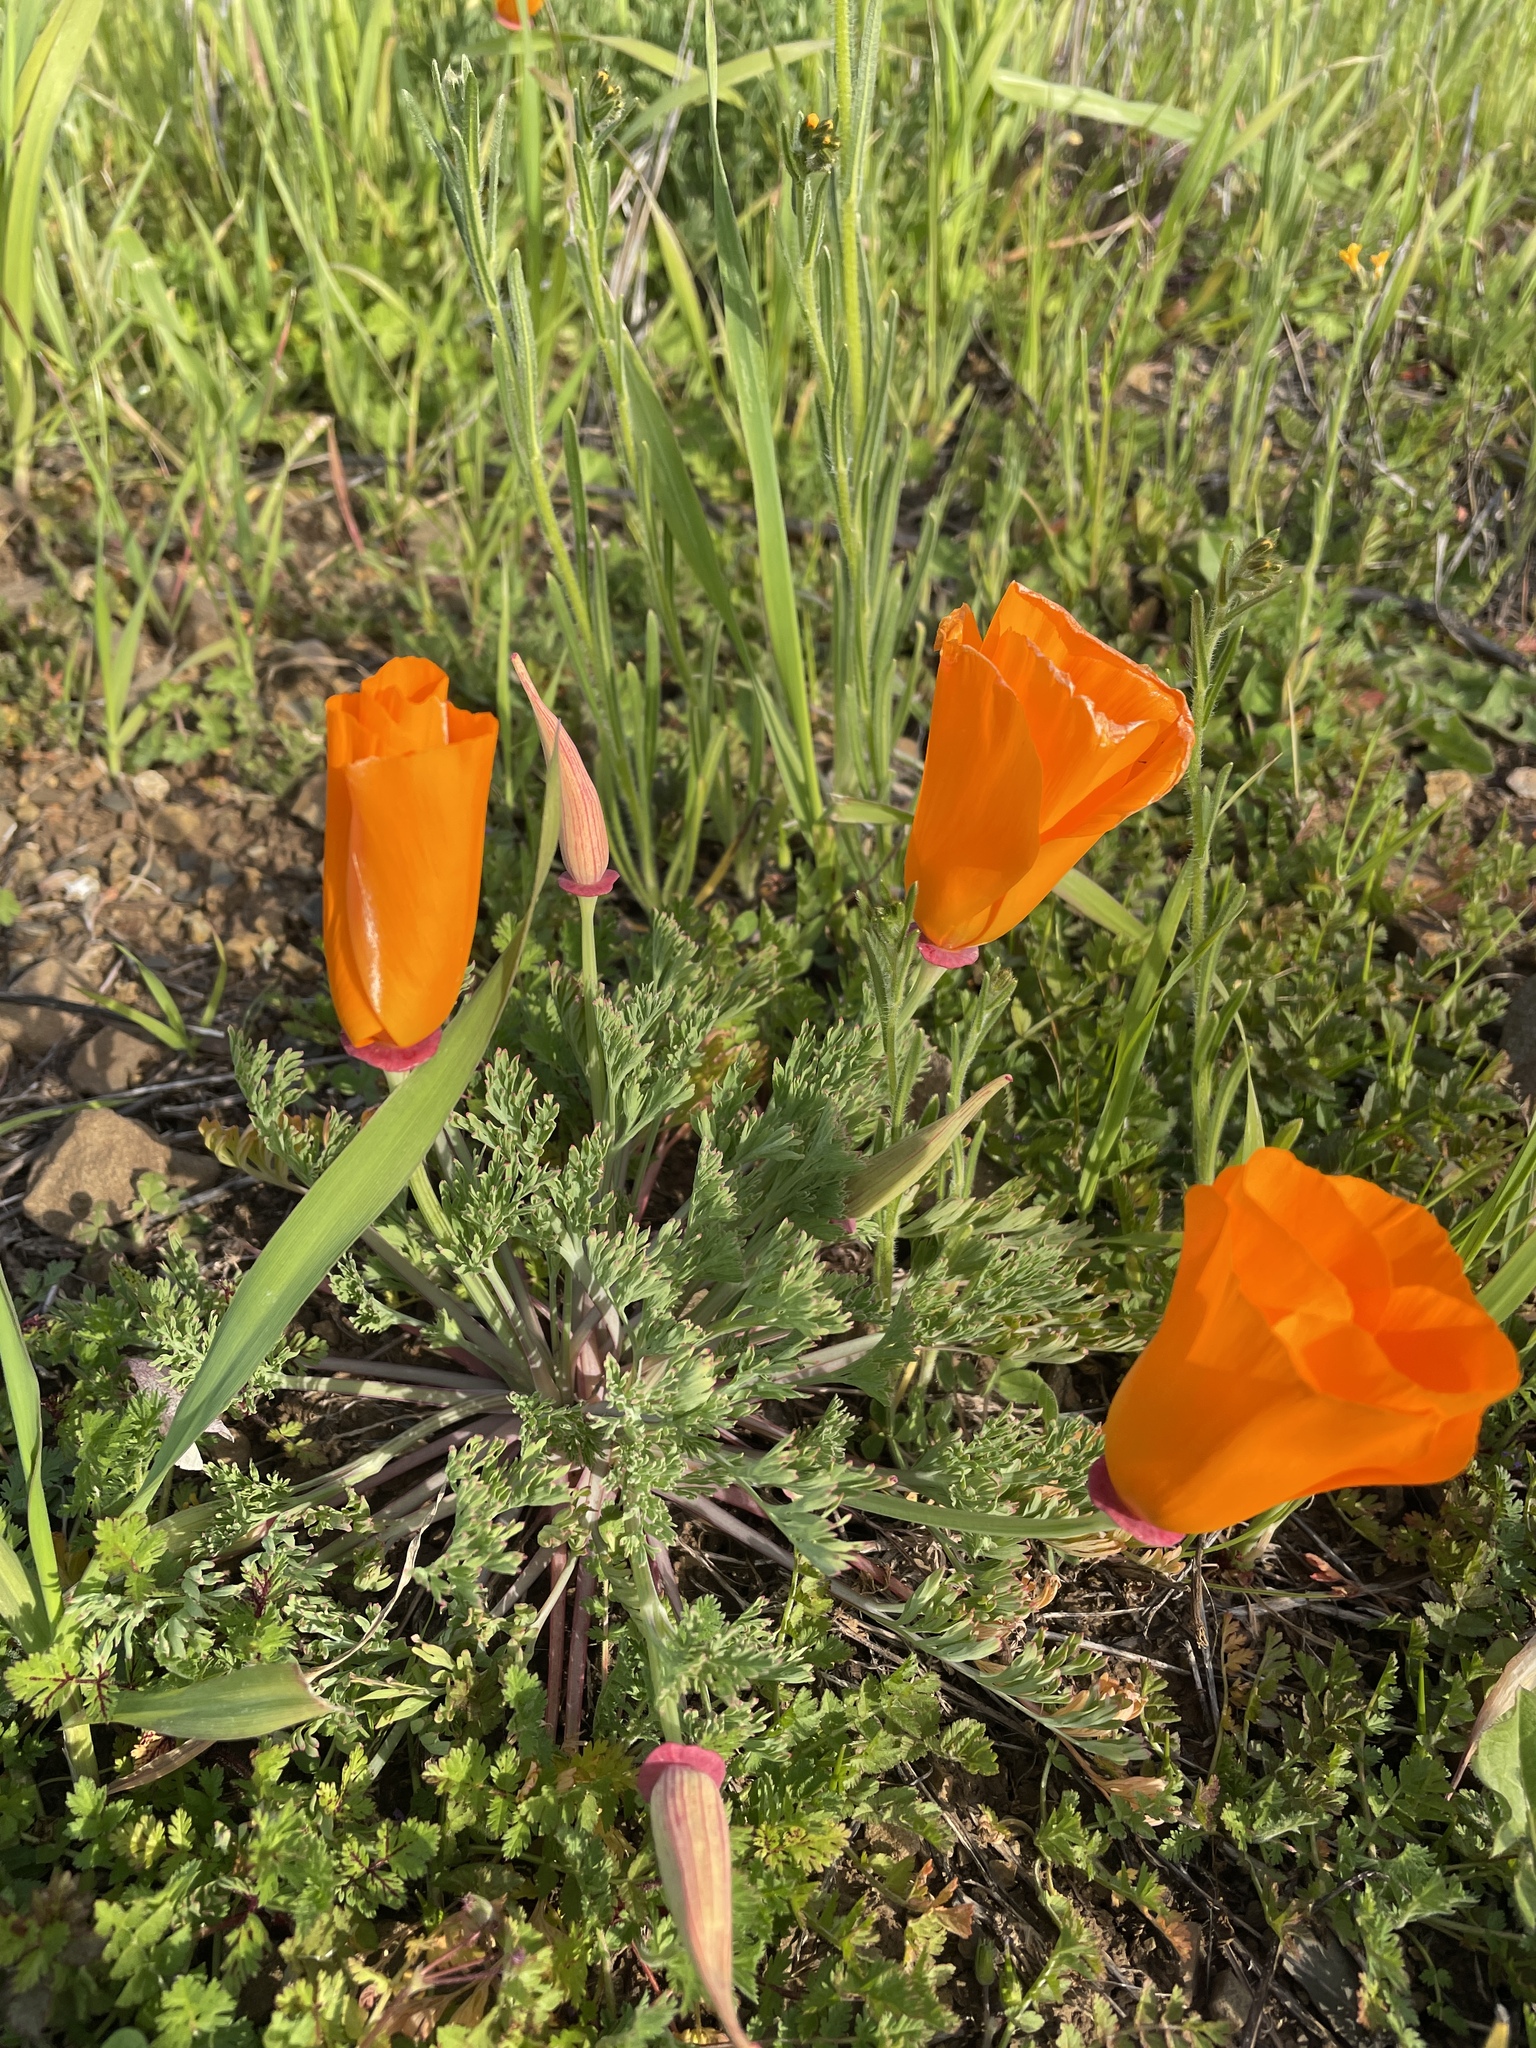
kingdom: Plantae
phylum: Tracheophyta
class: Magnoliopsida
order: Ranunculales
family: Papaveraceae
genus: Eschscholzia
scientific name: Eschscholzia californica
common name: California poppy
